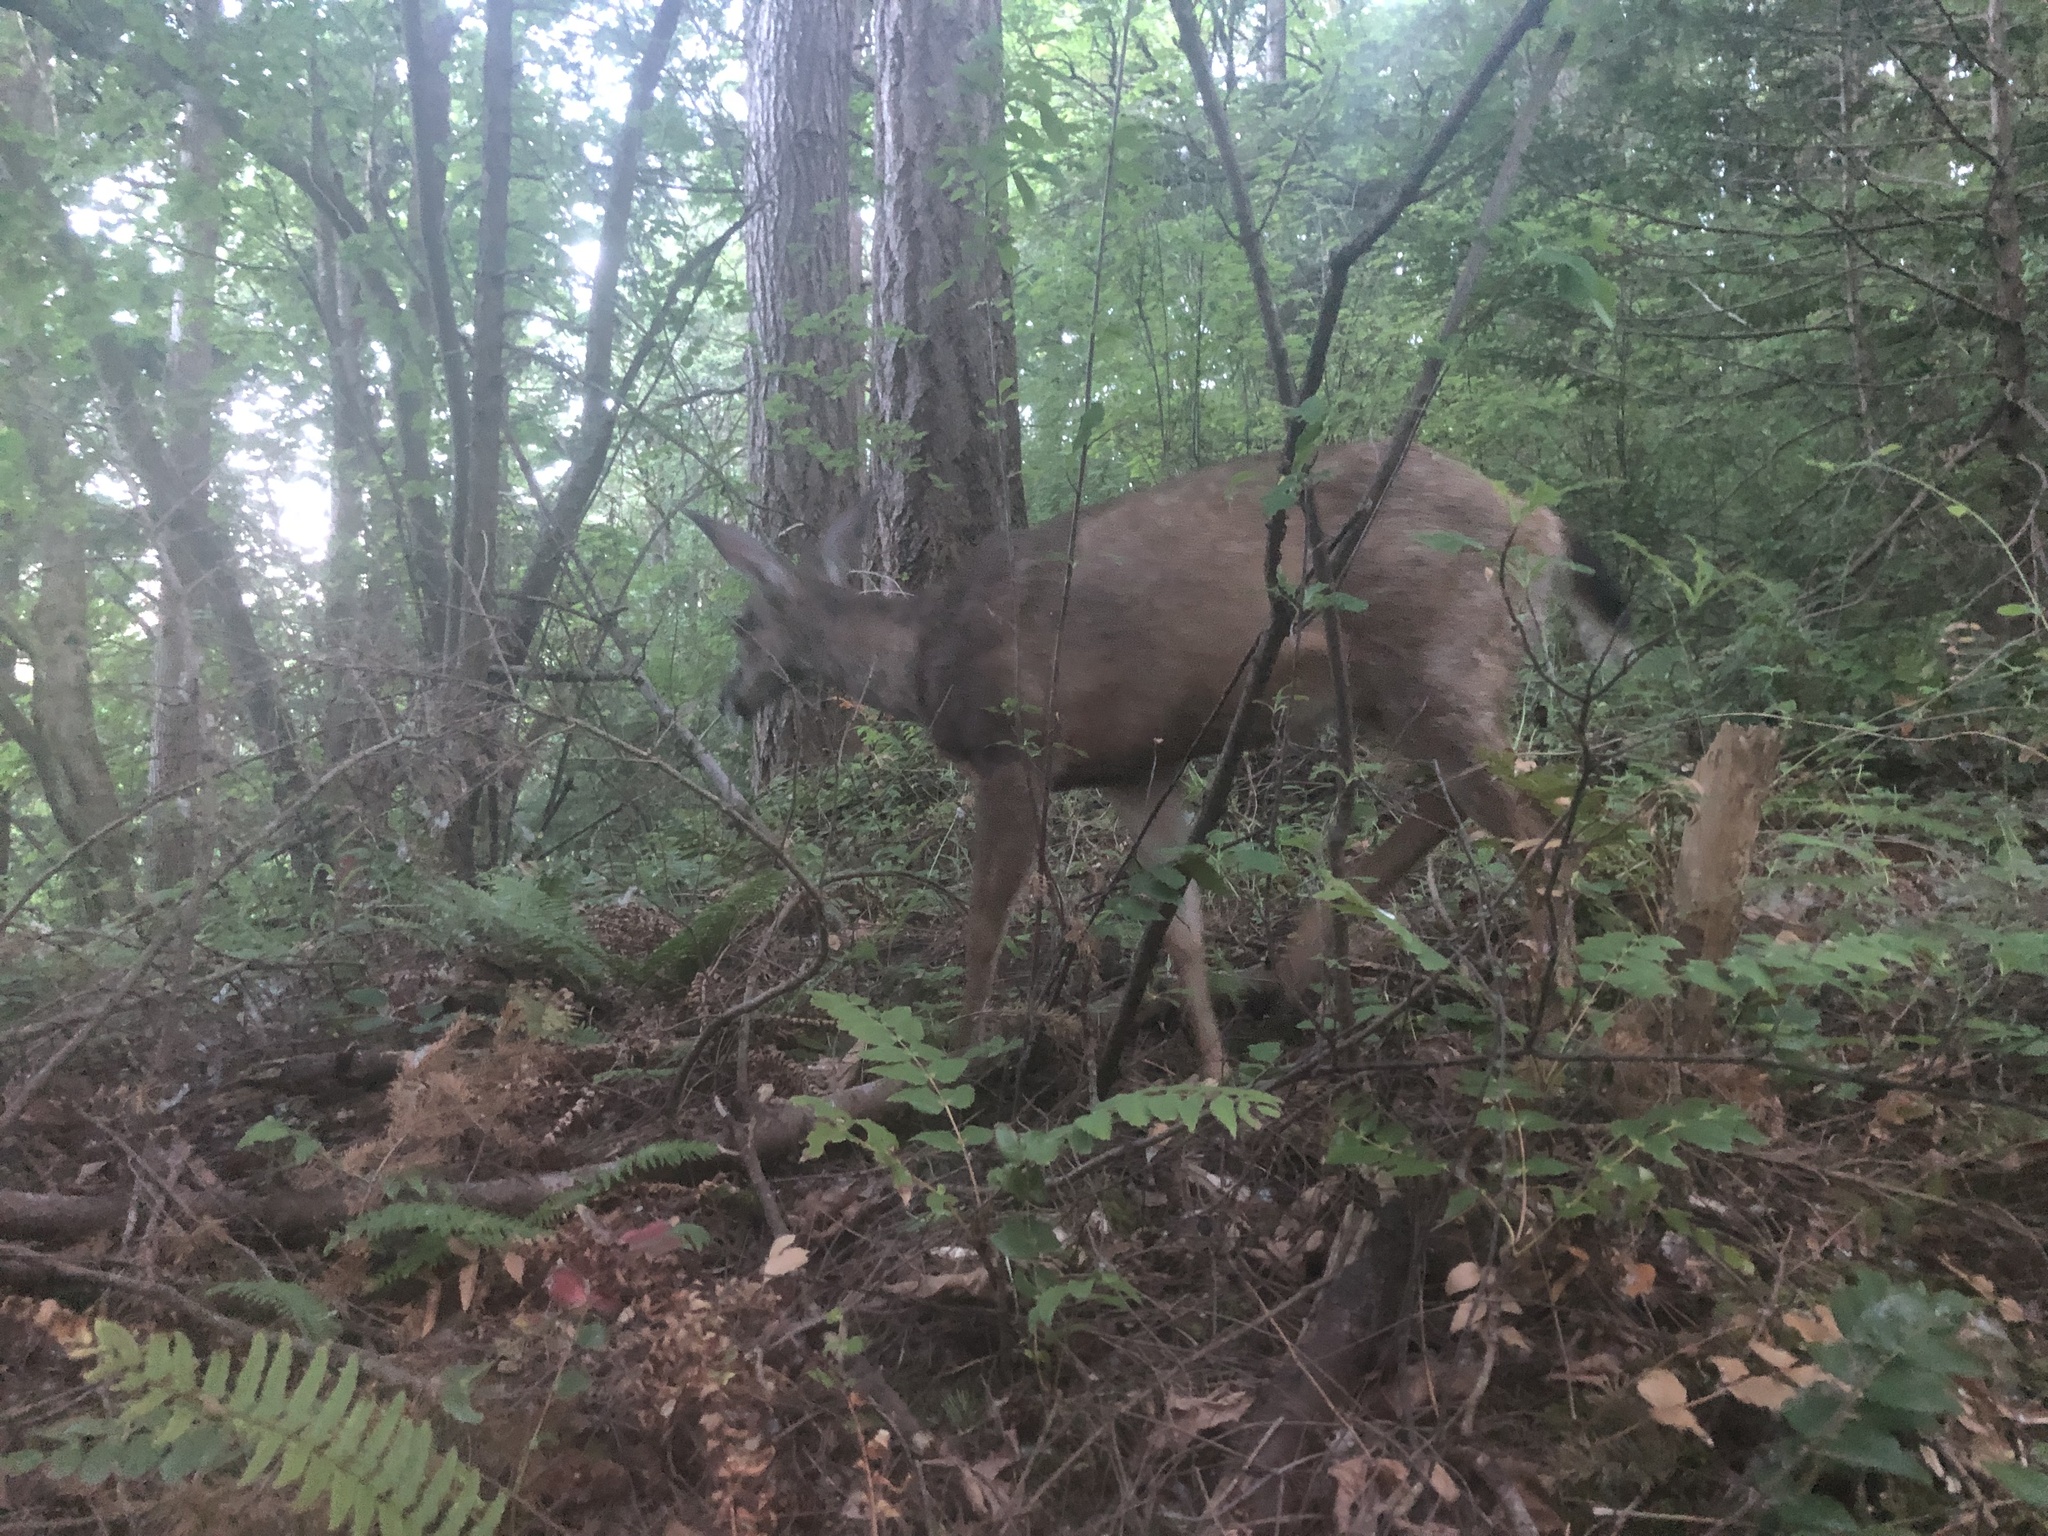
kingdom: Animalia
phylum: Chordata
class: Mammalia
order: Artiodactyla
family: Cervidae
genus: Odocoileus
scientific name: Odocoileus hemionus
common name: Mule deer
